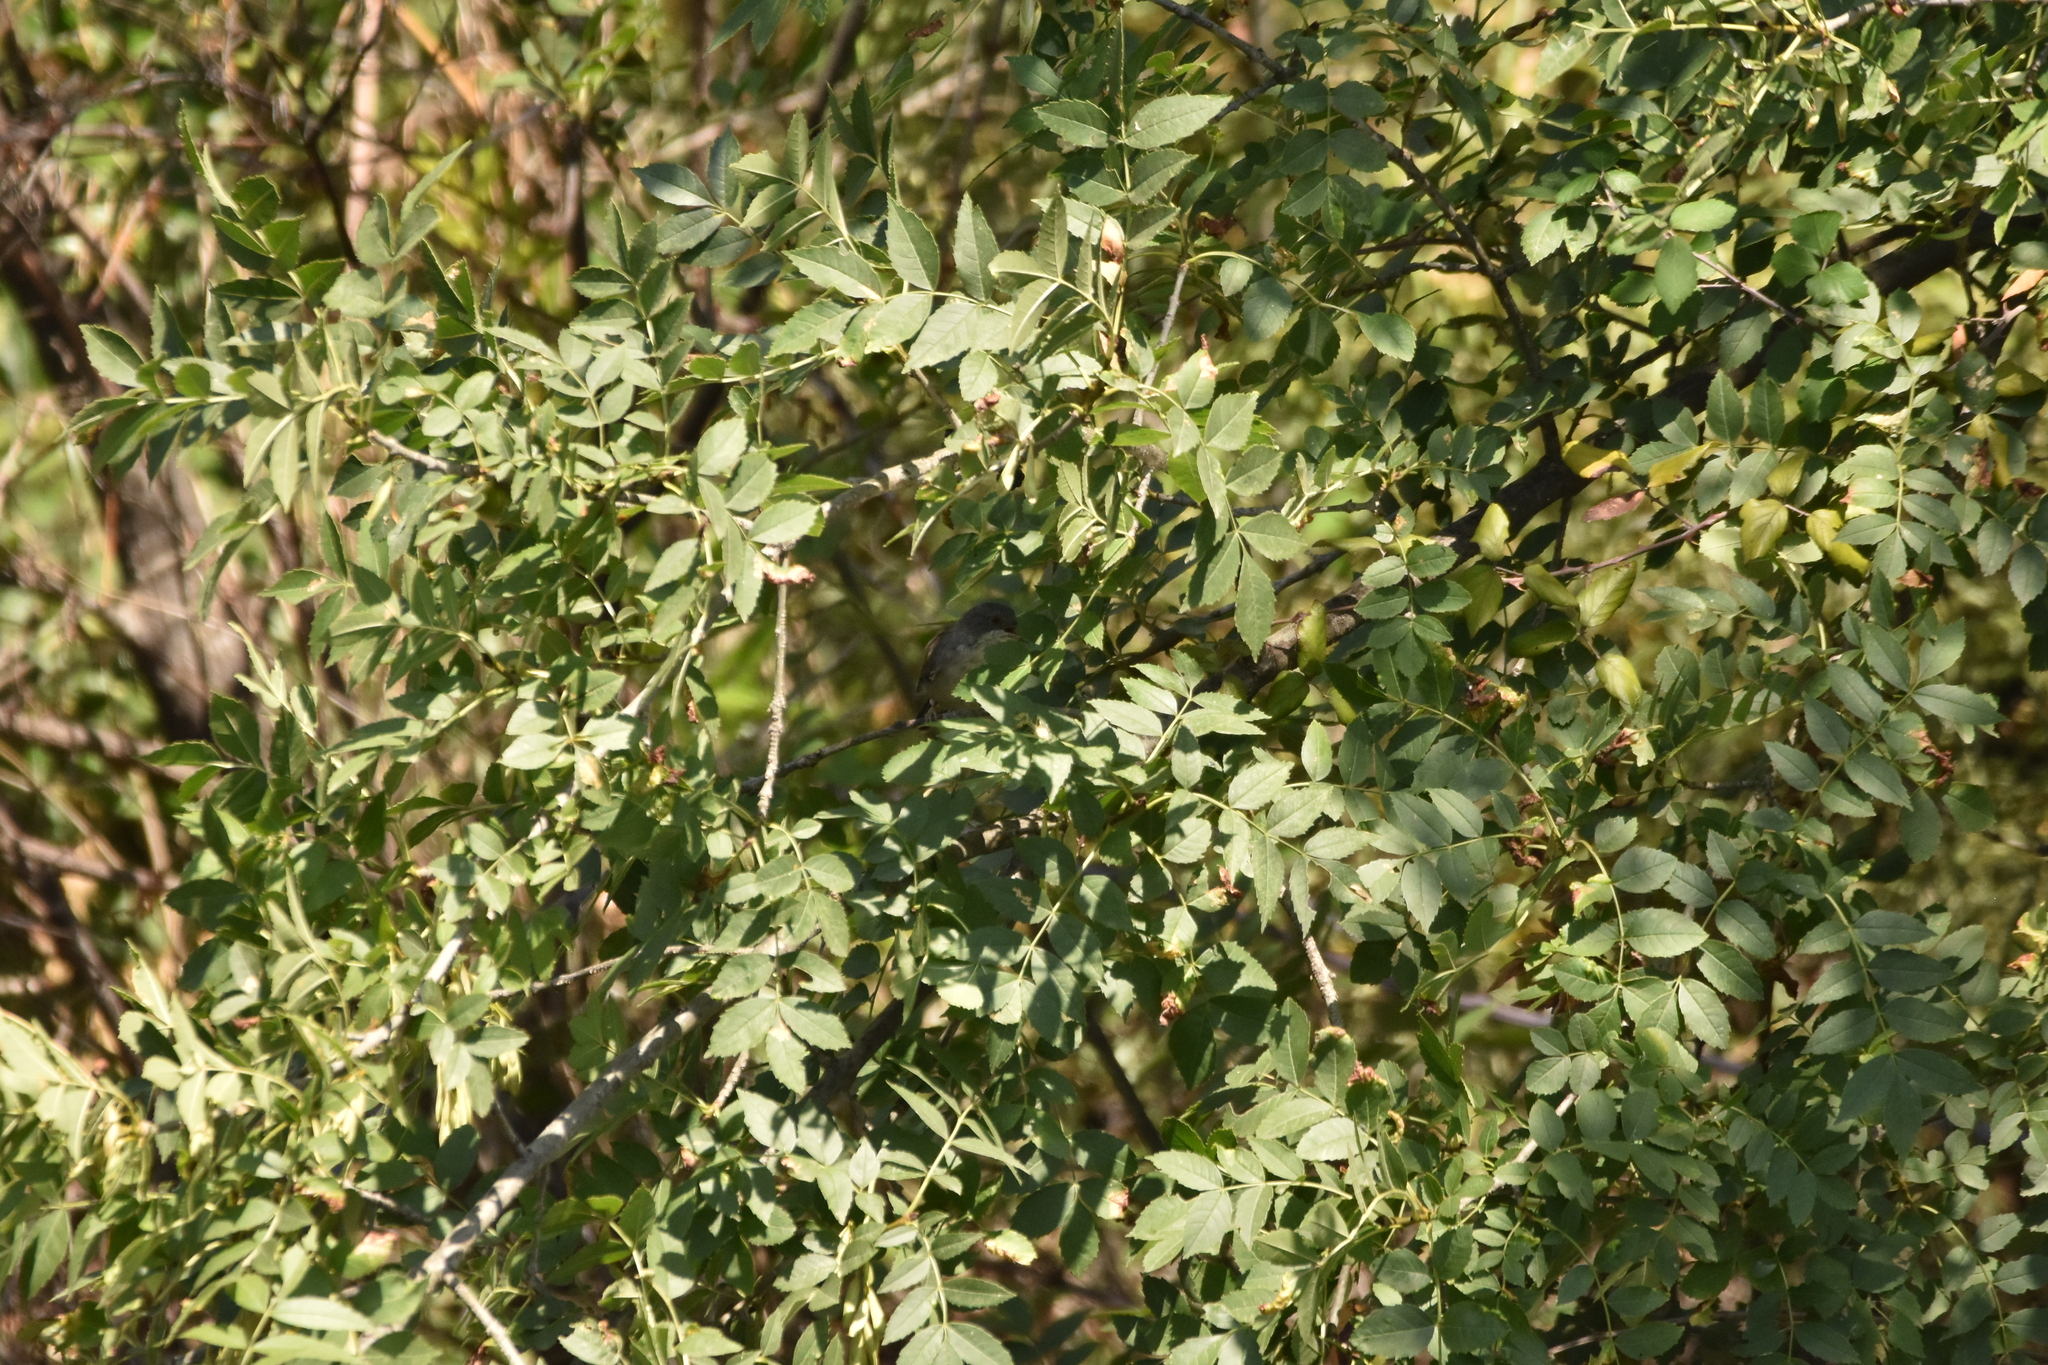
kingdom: Animalia
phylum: Chordata
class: Aves
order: Passeriformes
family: Sylviidae
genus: Curruca
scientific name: Curruca melanocephala
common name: Sardinian warbler
